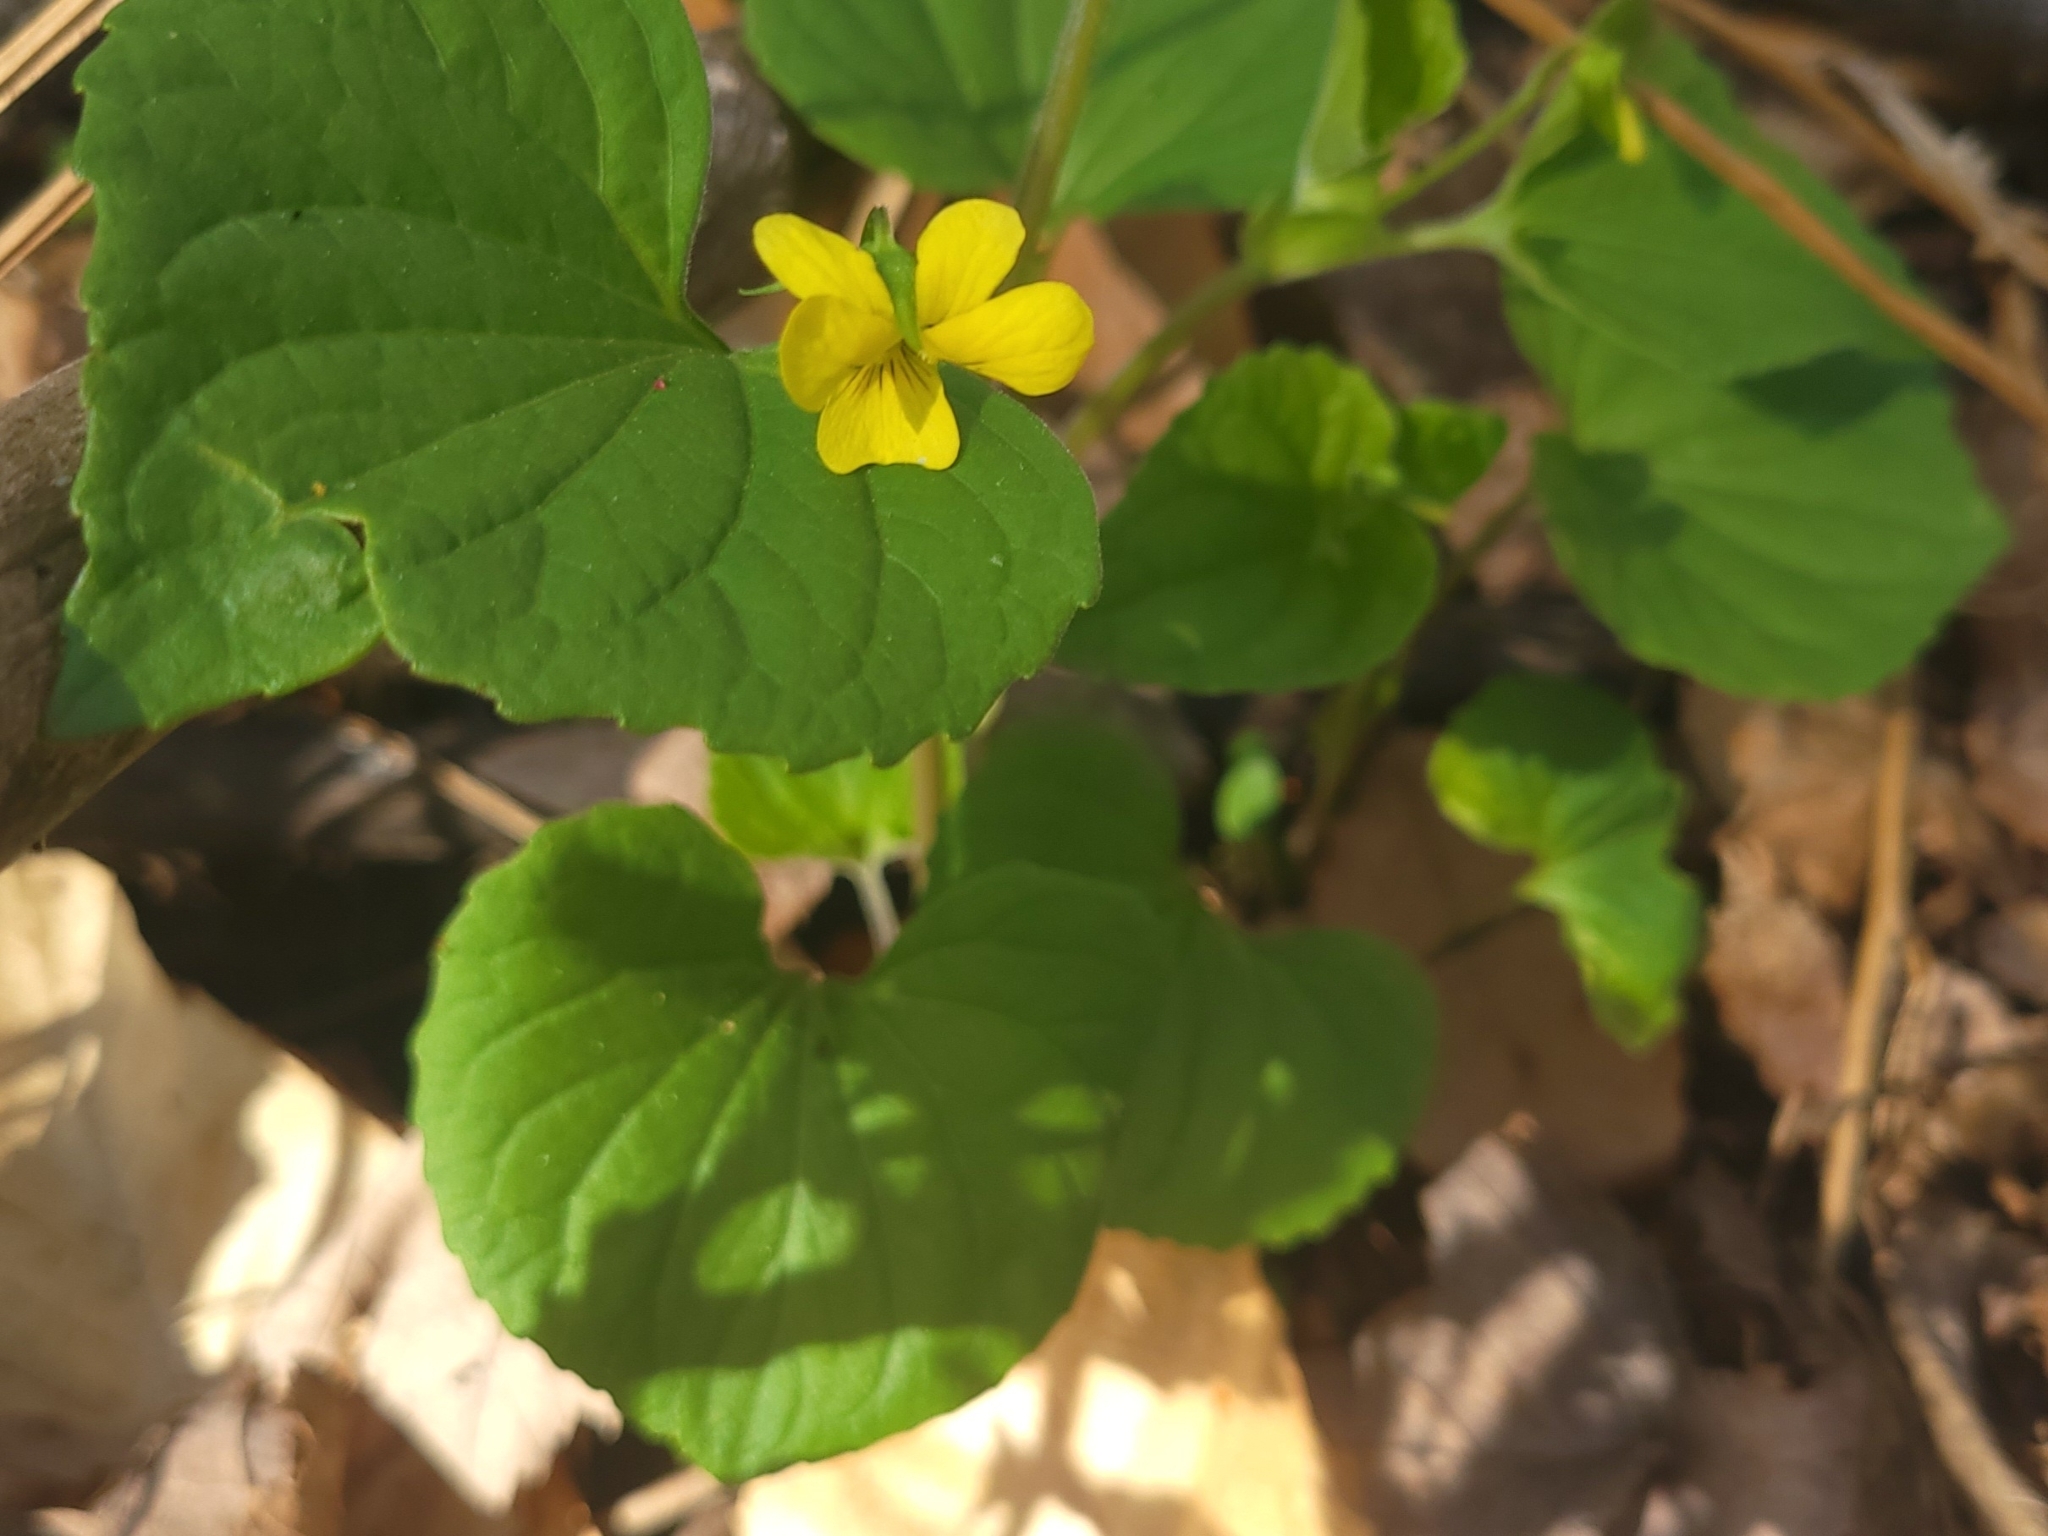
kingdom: Plantae
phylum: Tracheophyta
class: Magnoliopsida
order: Malpighiales
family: Violaceae
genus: Viola
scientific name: Viola eriocarpa
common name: Smooth yellow violet
